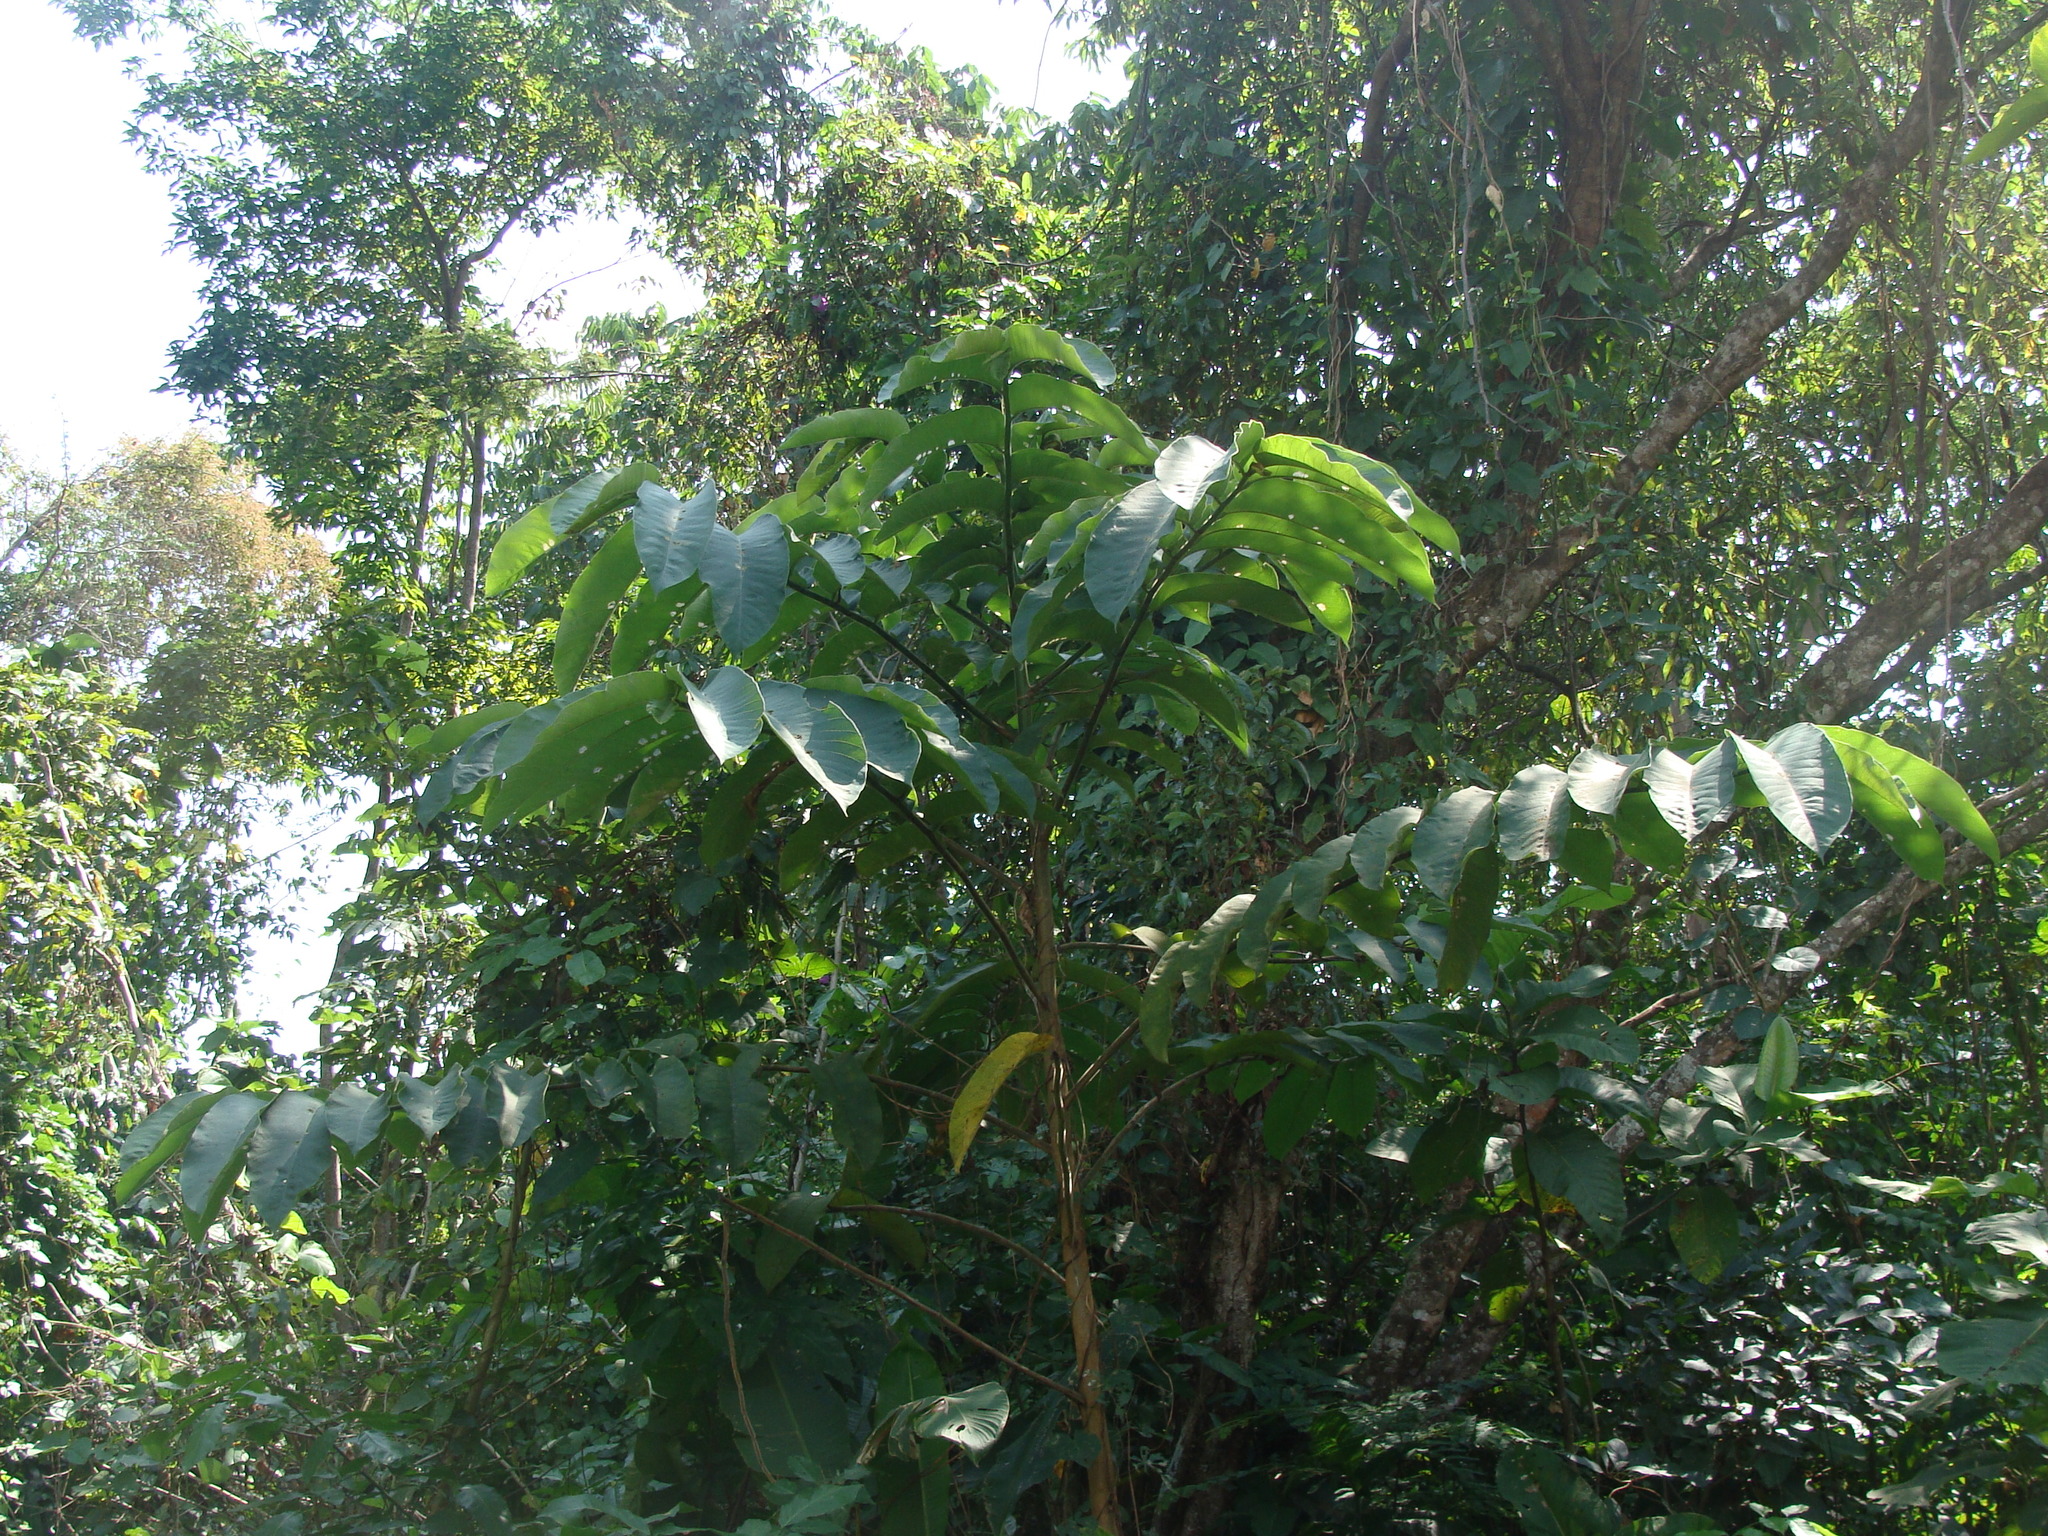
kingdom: Plantae
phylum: Tracheophyta
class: Magnoliopsida
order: Rosales
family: Moraceae
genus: Castilla
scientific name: Castilla elastica
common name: Castilla rubber
